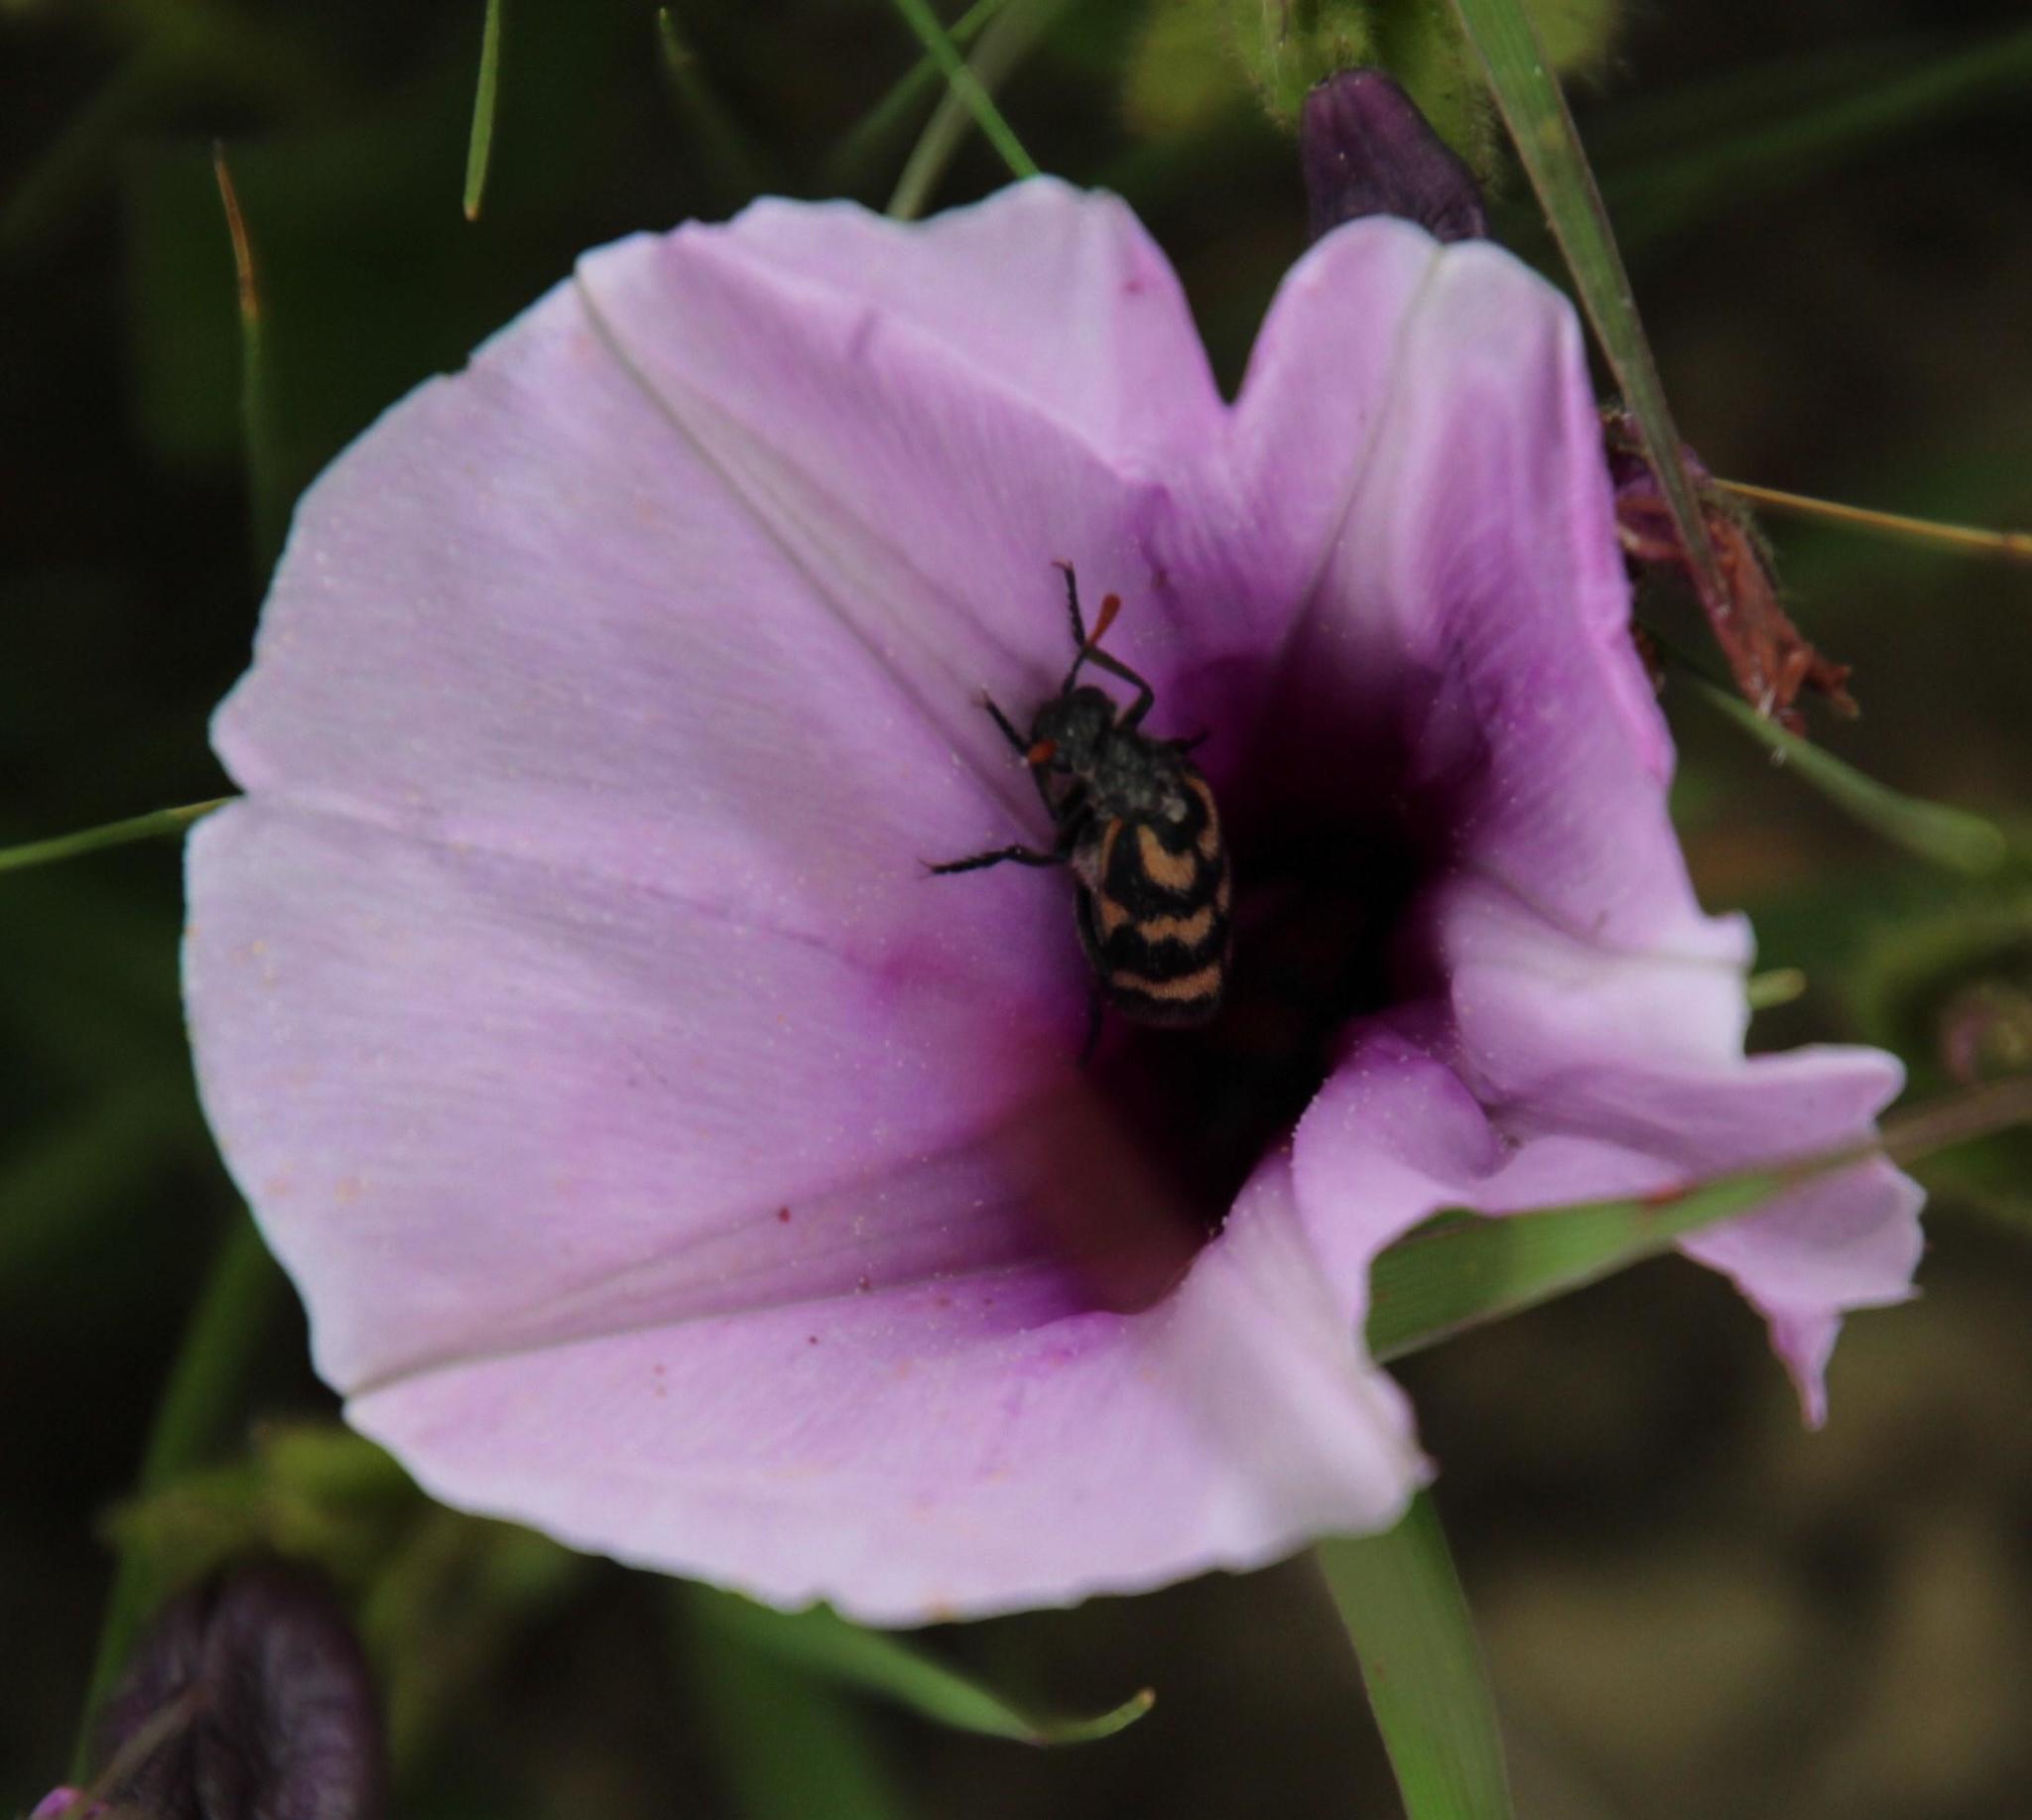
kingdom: Plantae
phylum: Tracheophyta
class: Magnoliopsida
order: Solanales
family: Convolvulaceae
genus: Ipomoea
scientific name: Ipomoea crassipes
